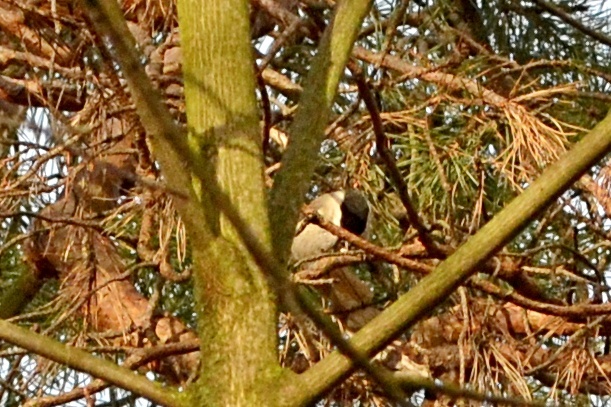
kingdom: Animalia
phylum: Chordata
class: Aves
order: Passeriformes
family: Paridae
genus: Poecile
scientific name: Poecile palustris
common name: Marsh tit
